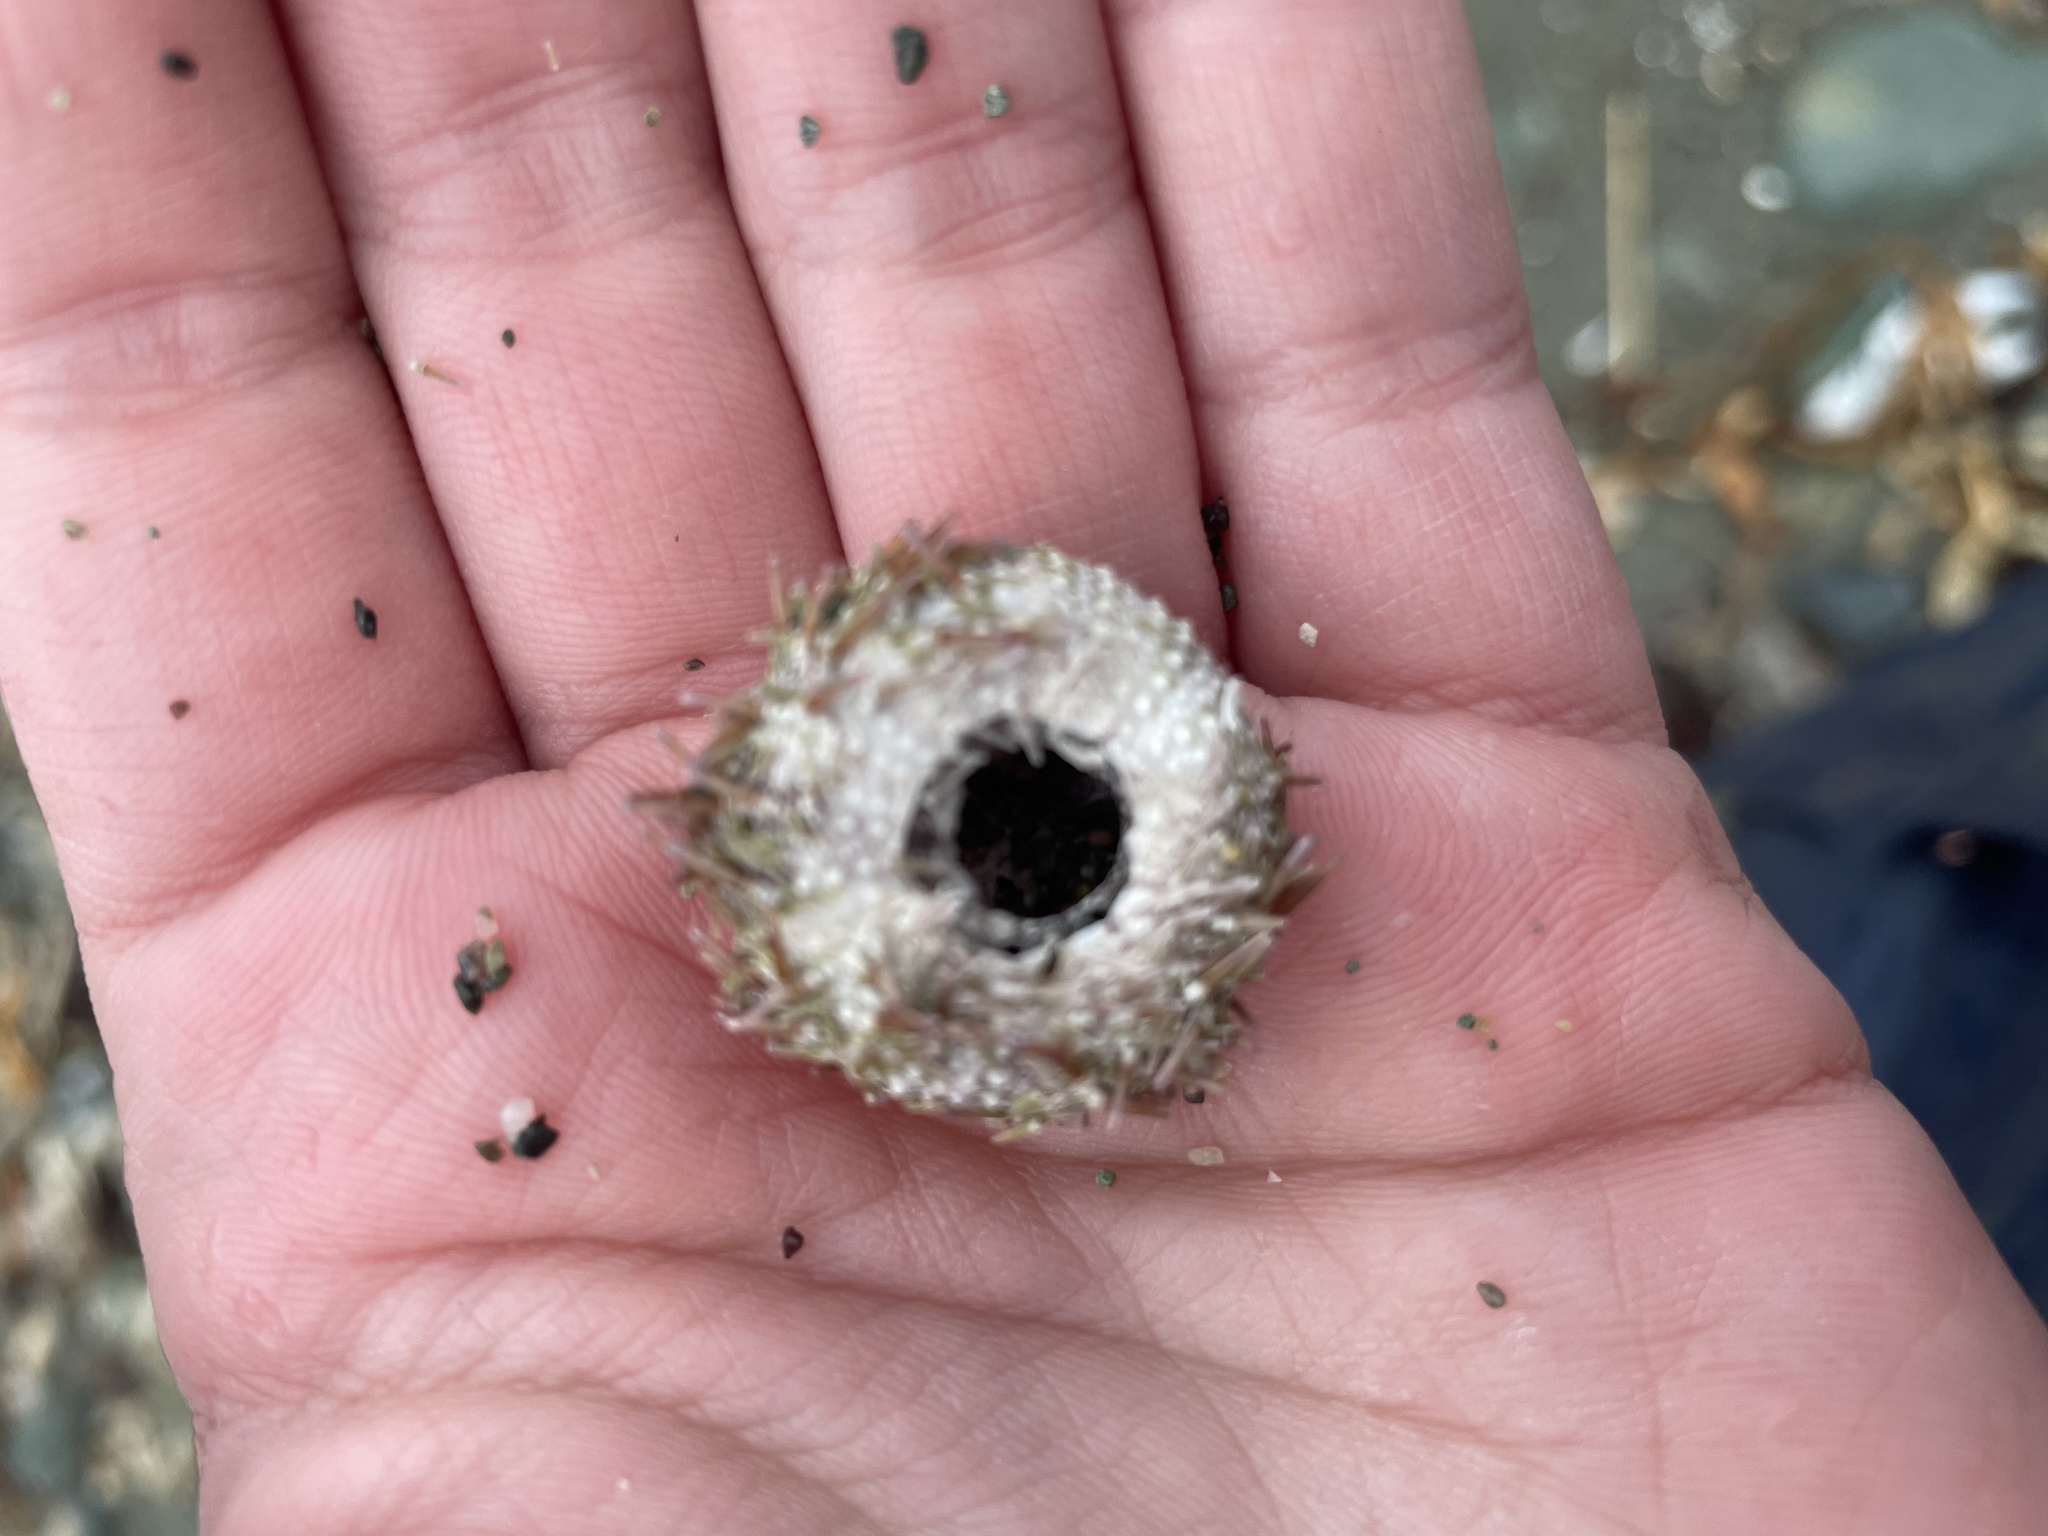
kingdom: Animalia
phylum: Echinodermata
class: Echinoidea
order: Camarodonta
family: Strongylocentrotidae
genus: Strongylocentrotus
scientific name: Strongylocentrotus droebachiensis
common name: Northern sea urchin
